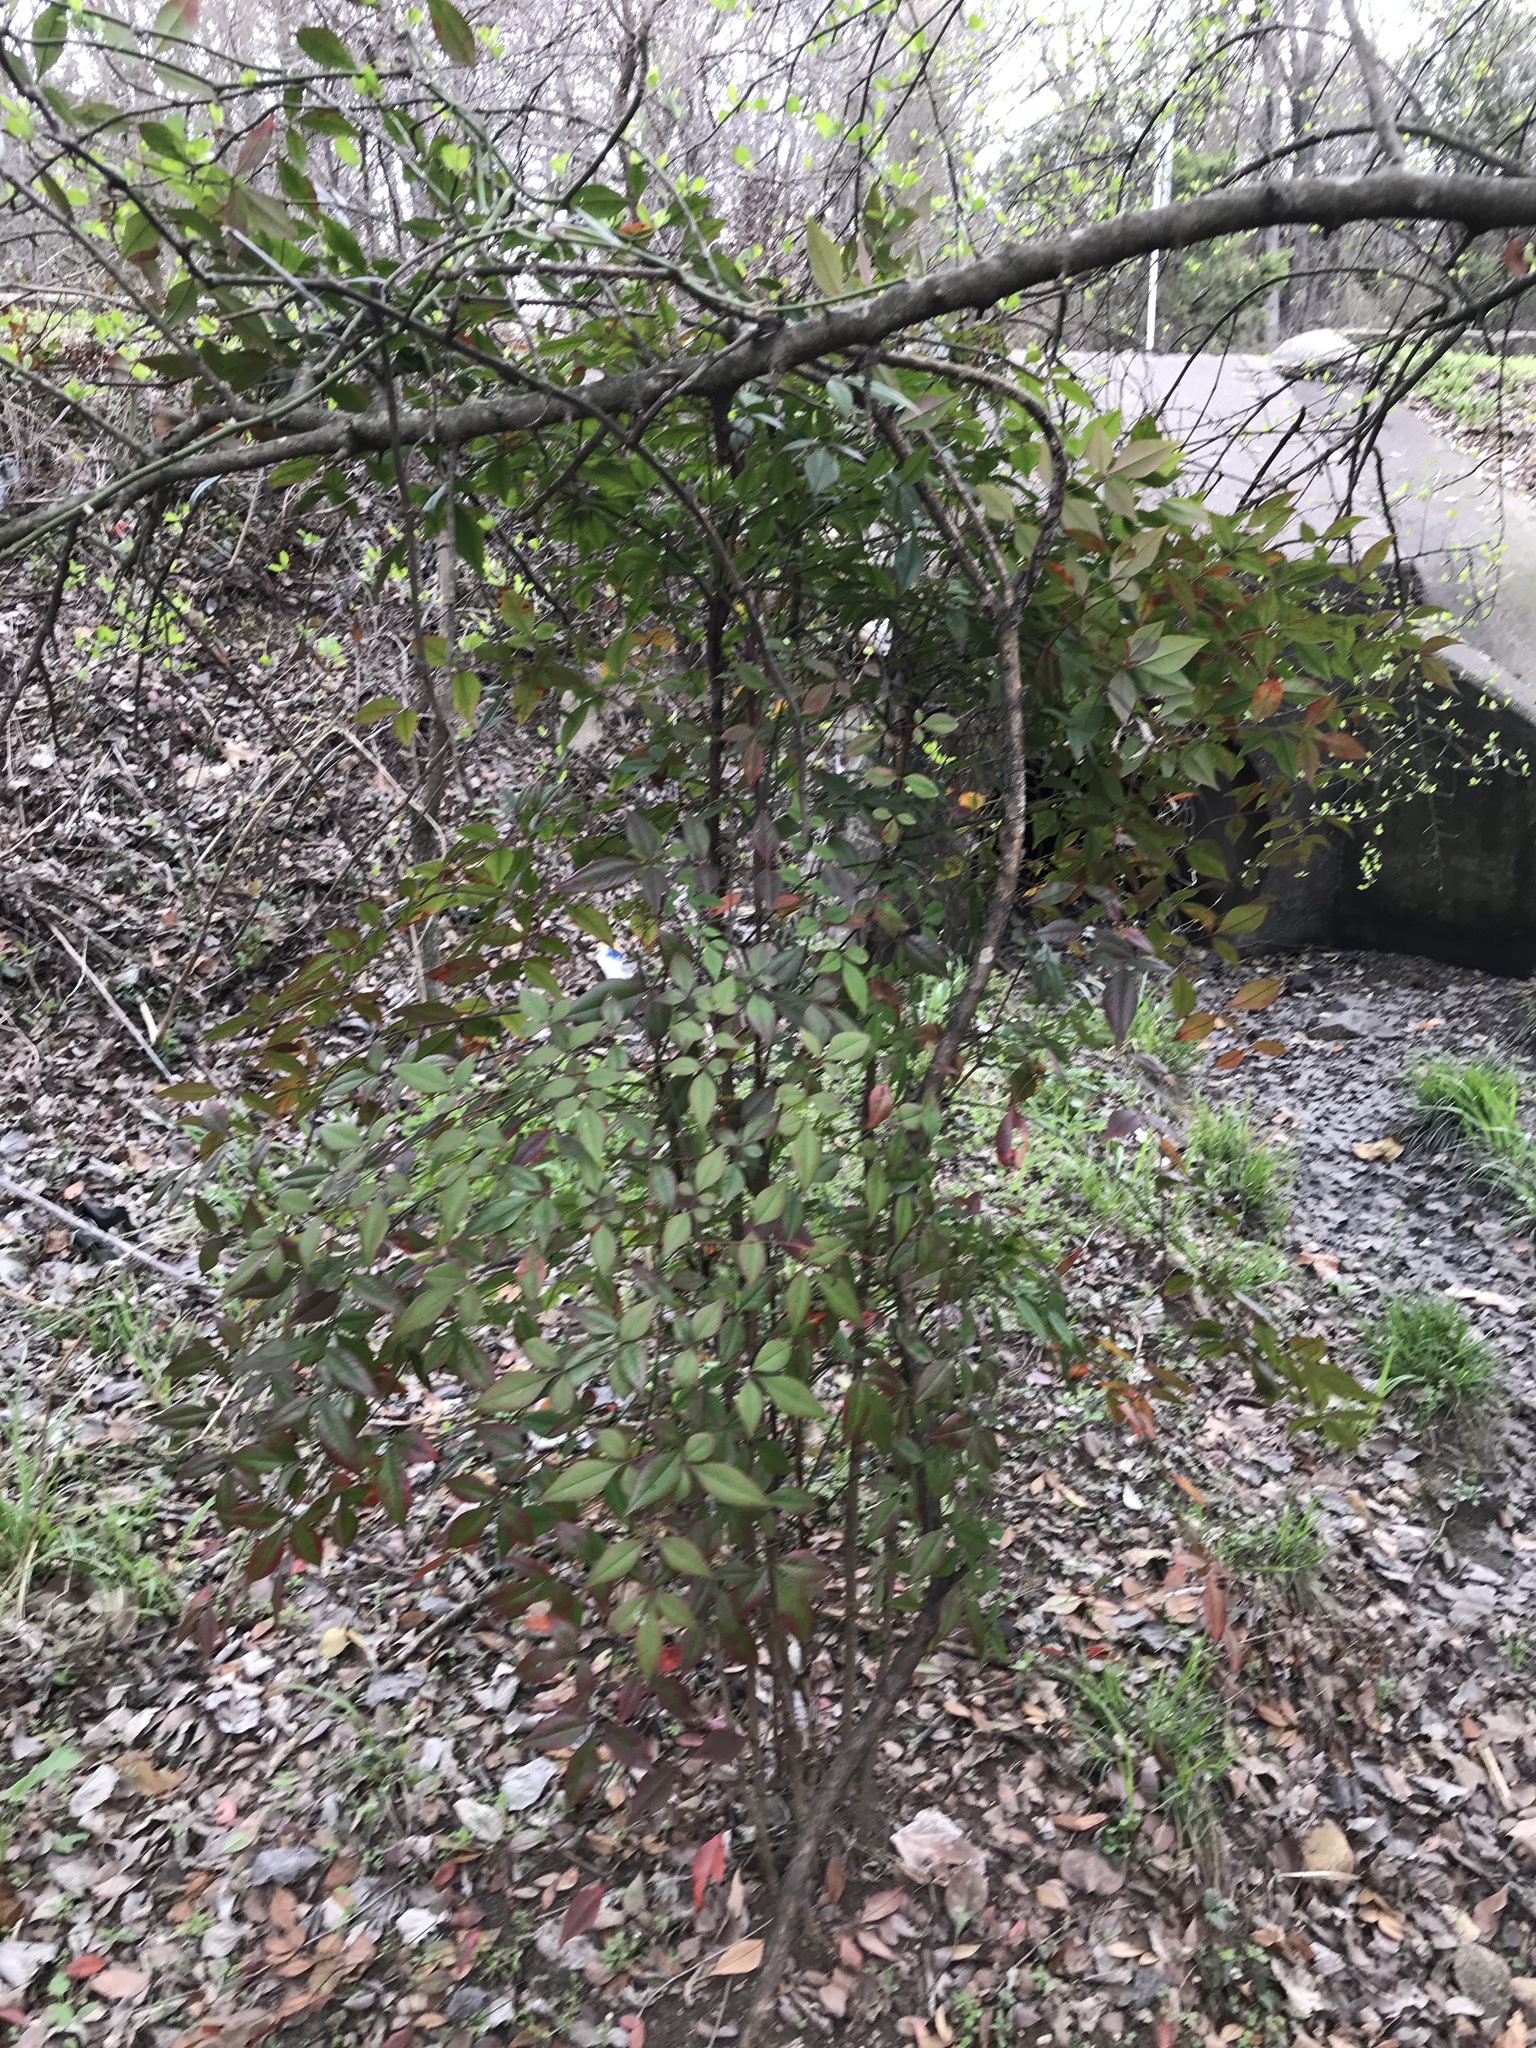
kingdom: Plantae
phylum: Tracheophyta
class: Magnoliopsida
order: Ranunculales
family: Berberidaceae
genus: Nandina
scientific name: Nandina domestica
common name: Sacred bamboo
